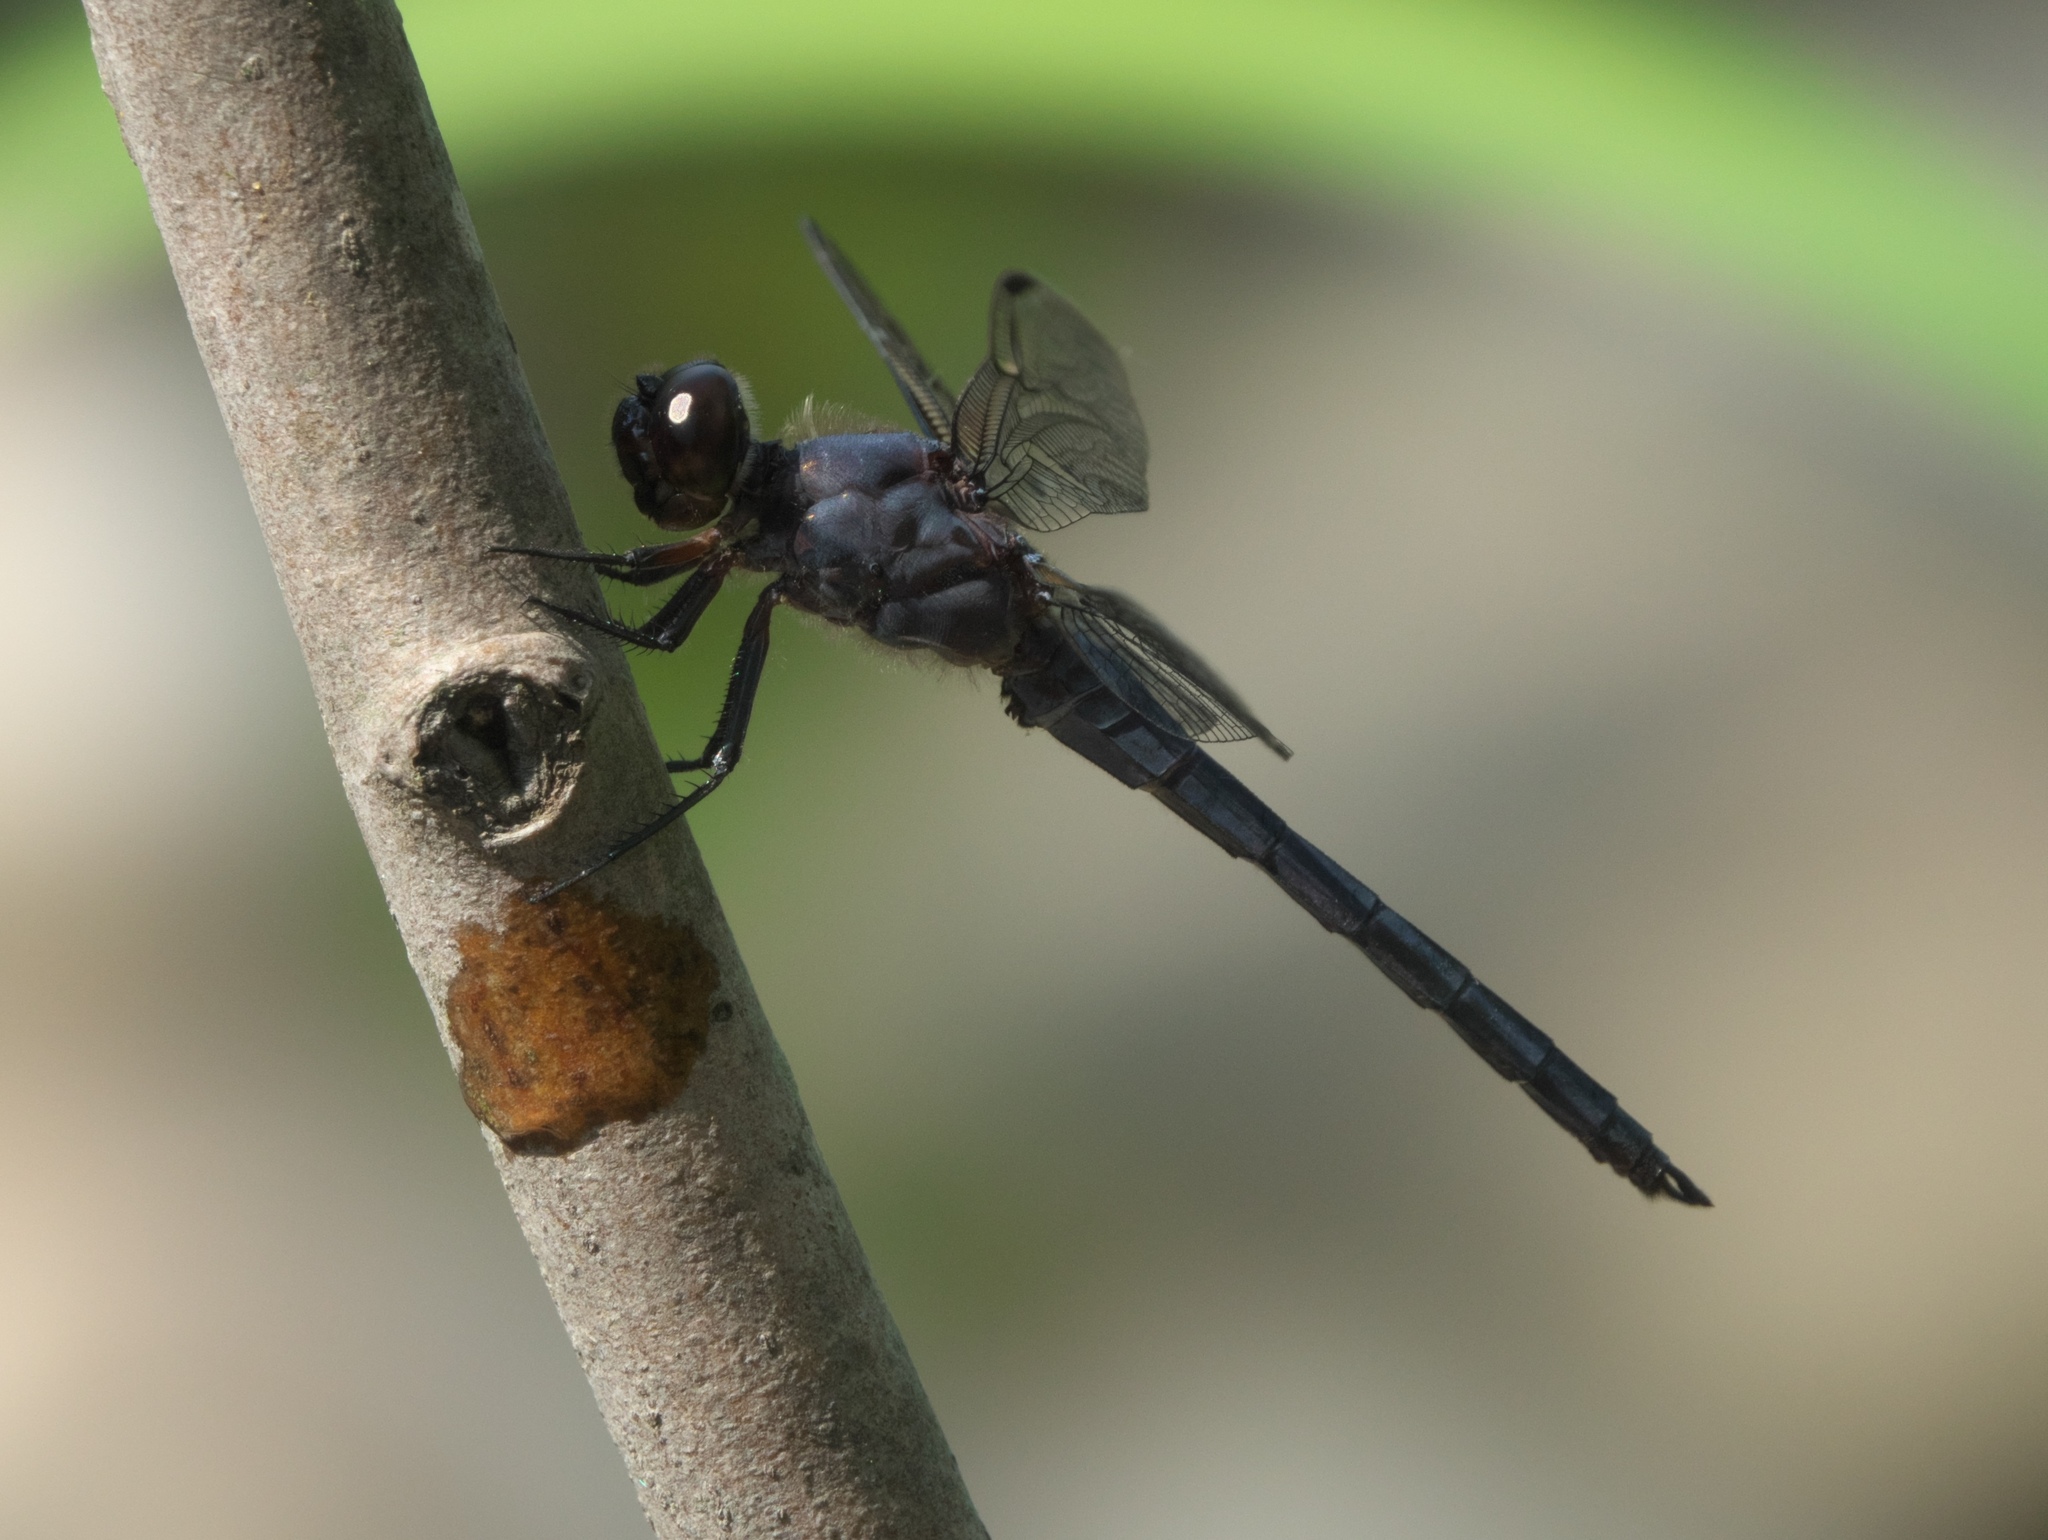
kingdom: Animalia
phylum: Arthropoda
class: Insecta
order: Odonata
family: Libellulidae
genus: Libellula
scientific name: Libellula incesta
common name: Slaty skimmer
